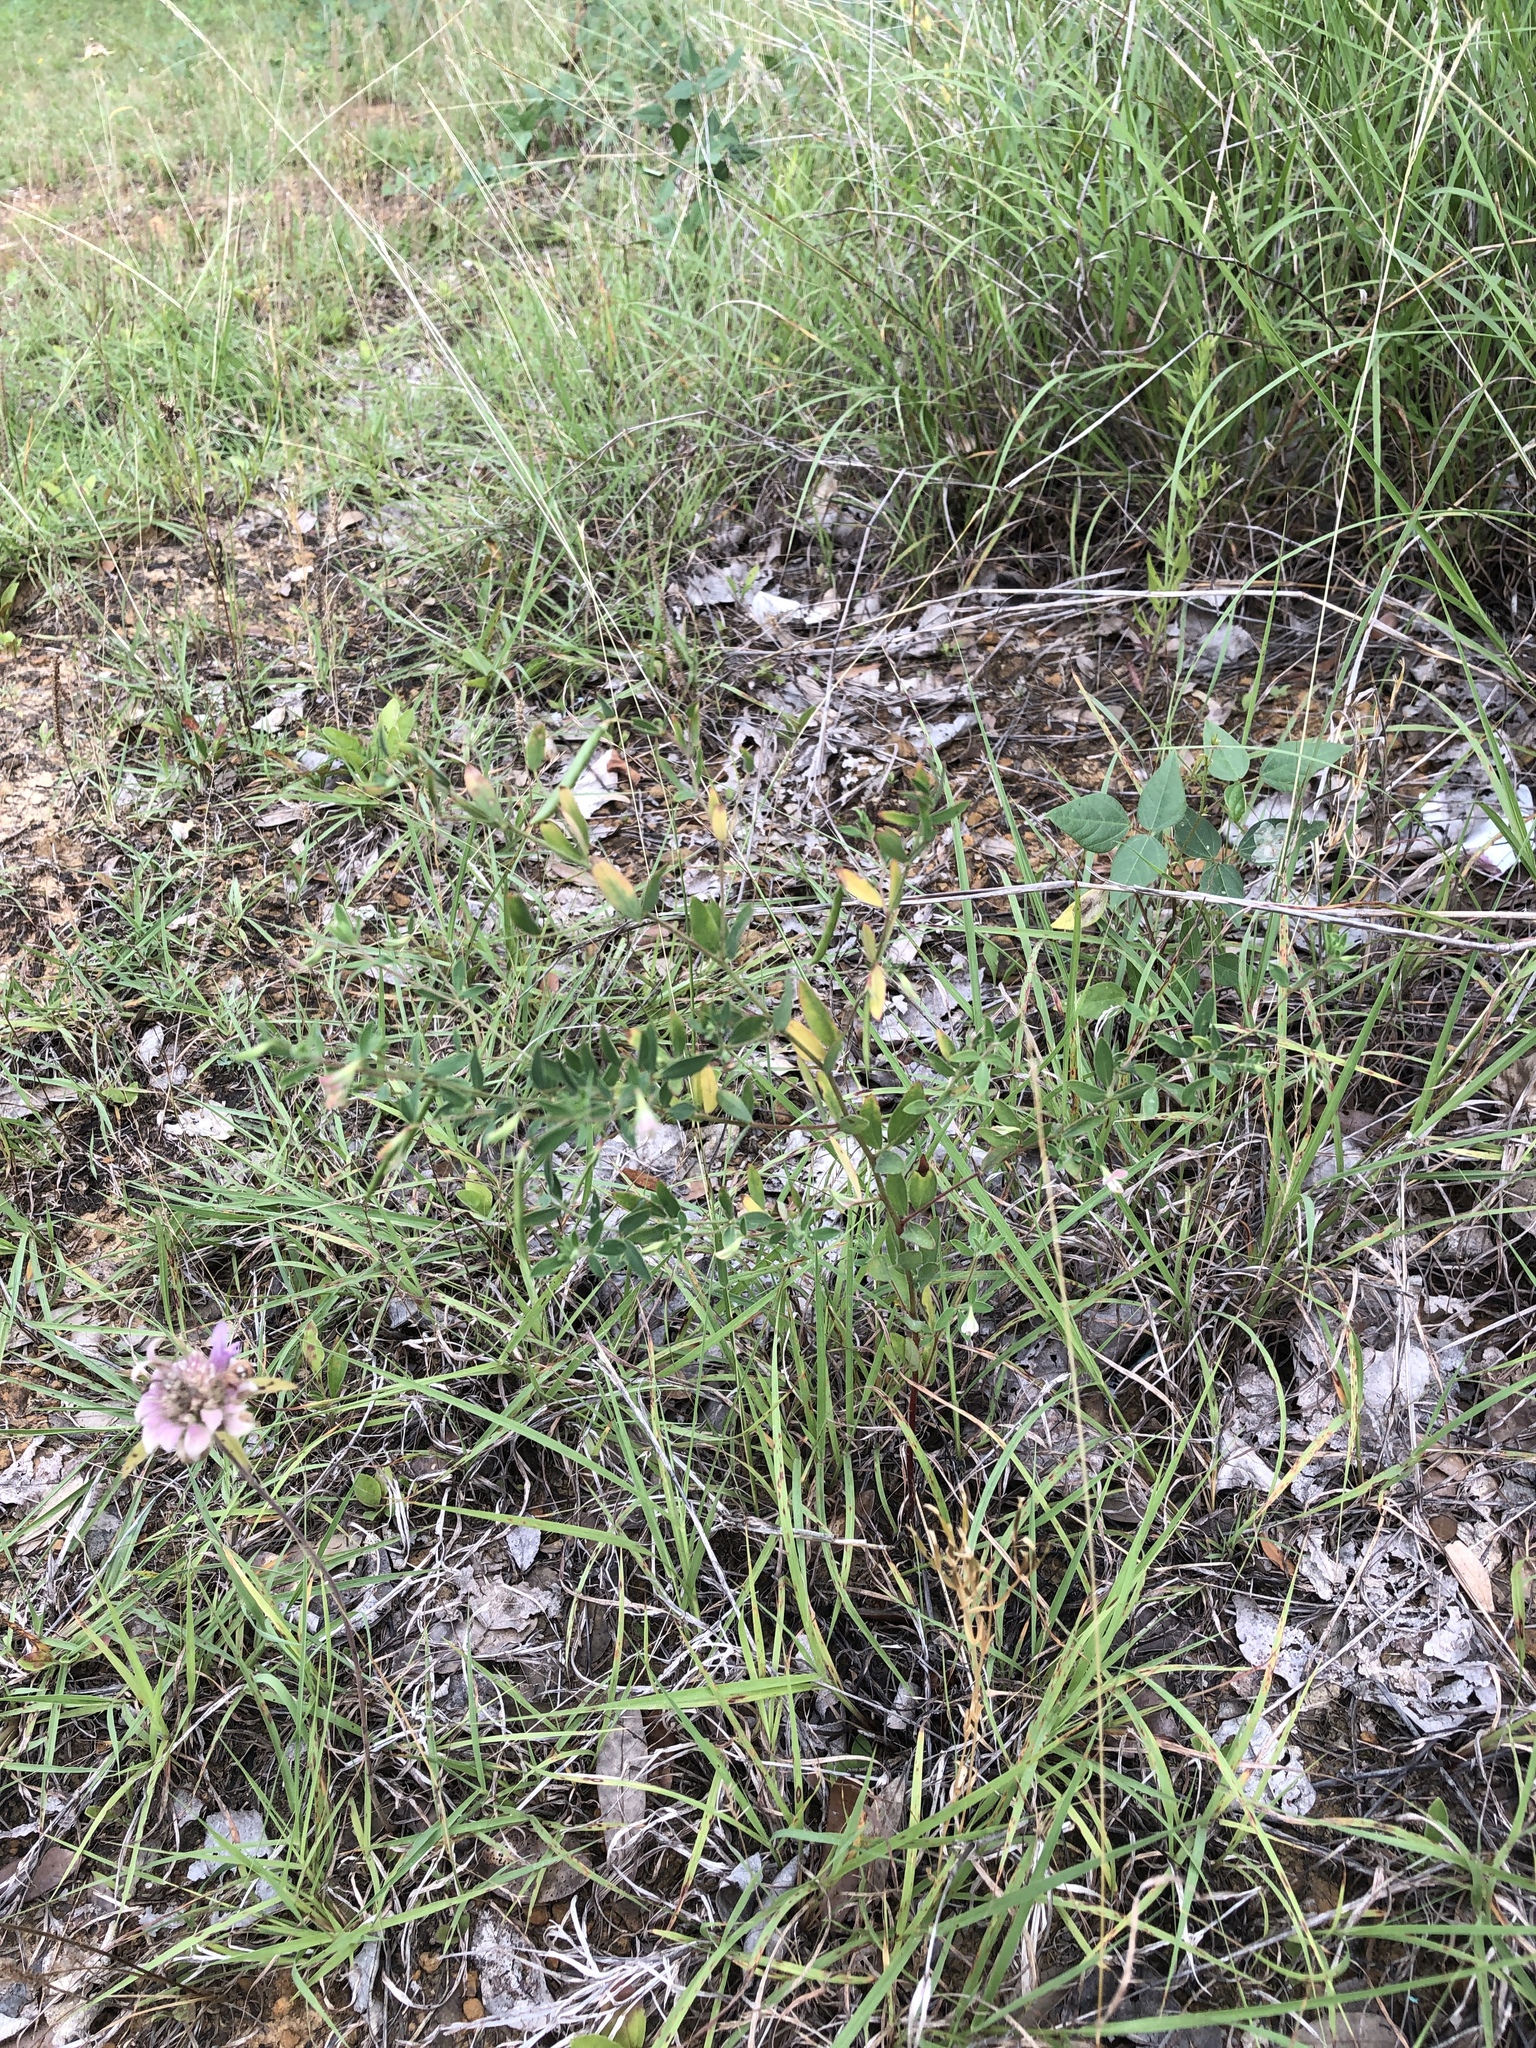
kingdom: Plantae
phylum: Tracheophyta
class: Magnoliopsida
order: Fabales
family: Fabaceae
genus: Acmispon
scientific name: Acmispon americanus
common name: American bird's-foot trefoil
